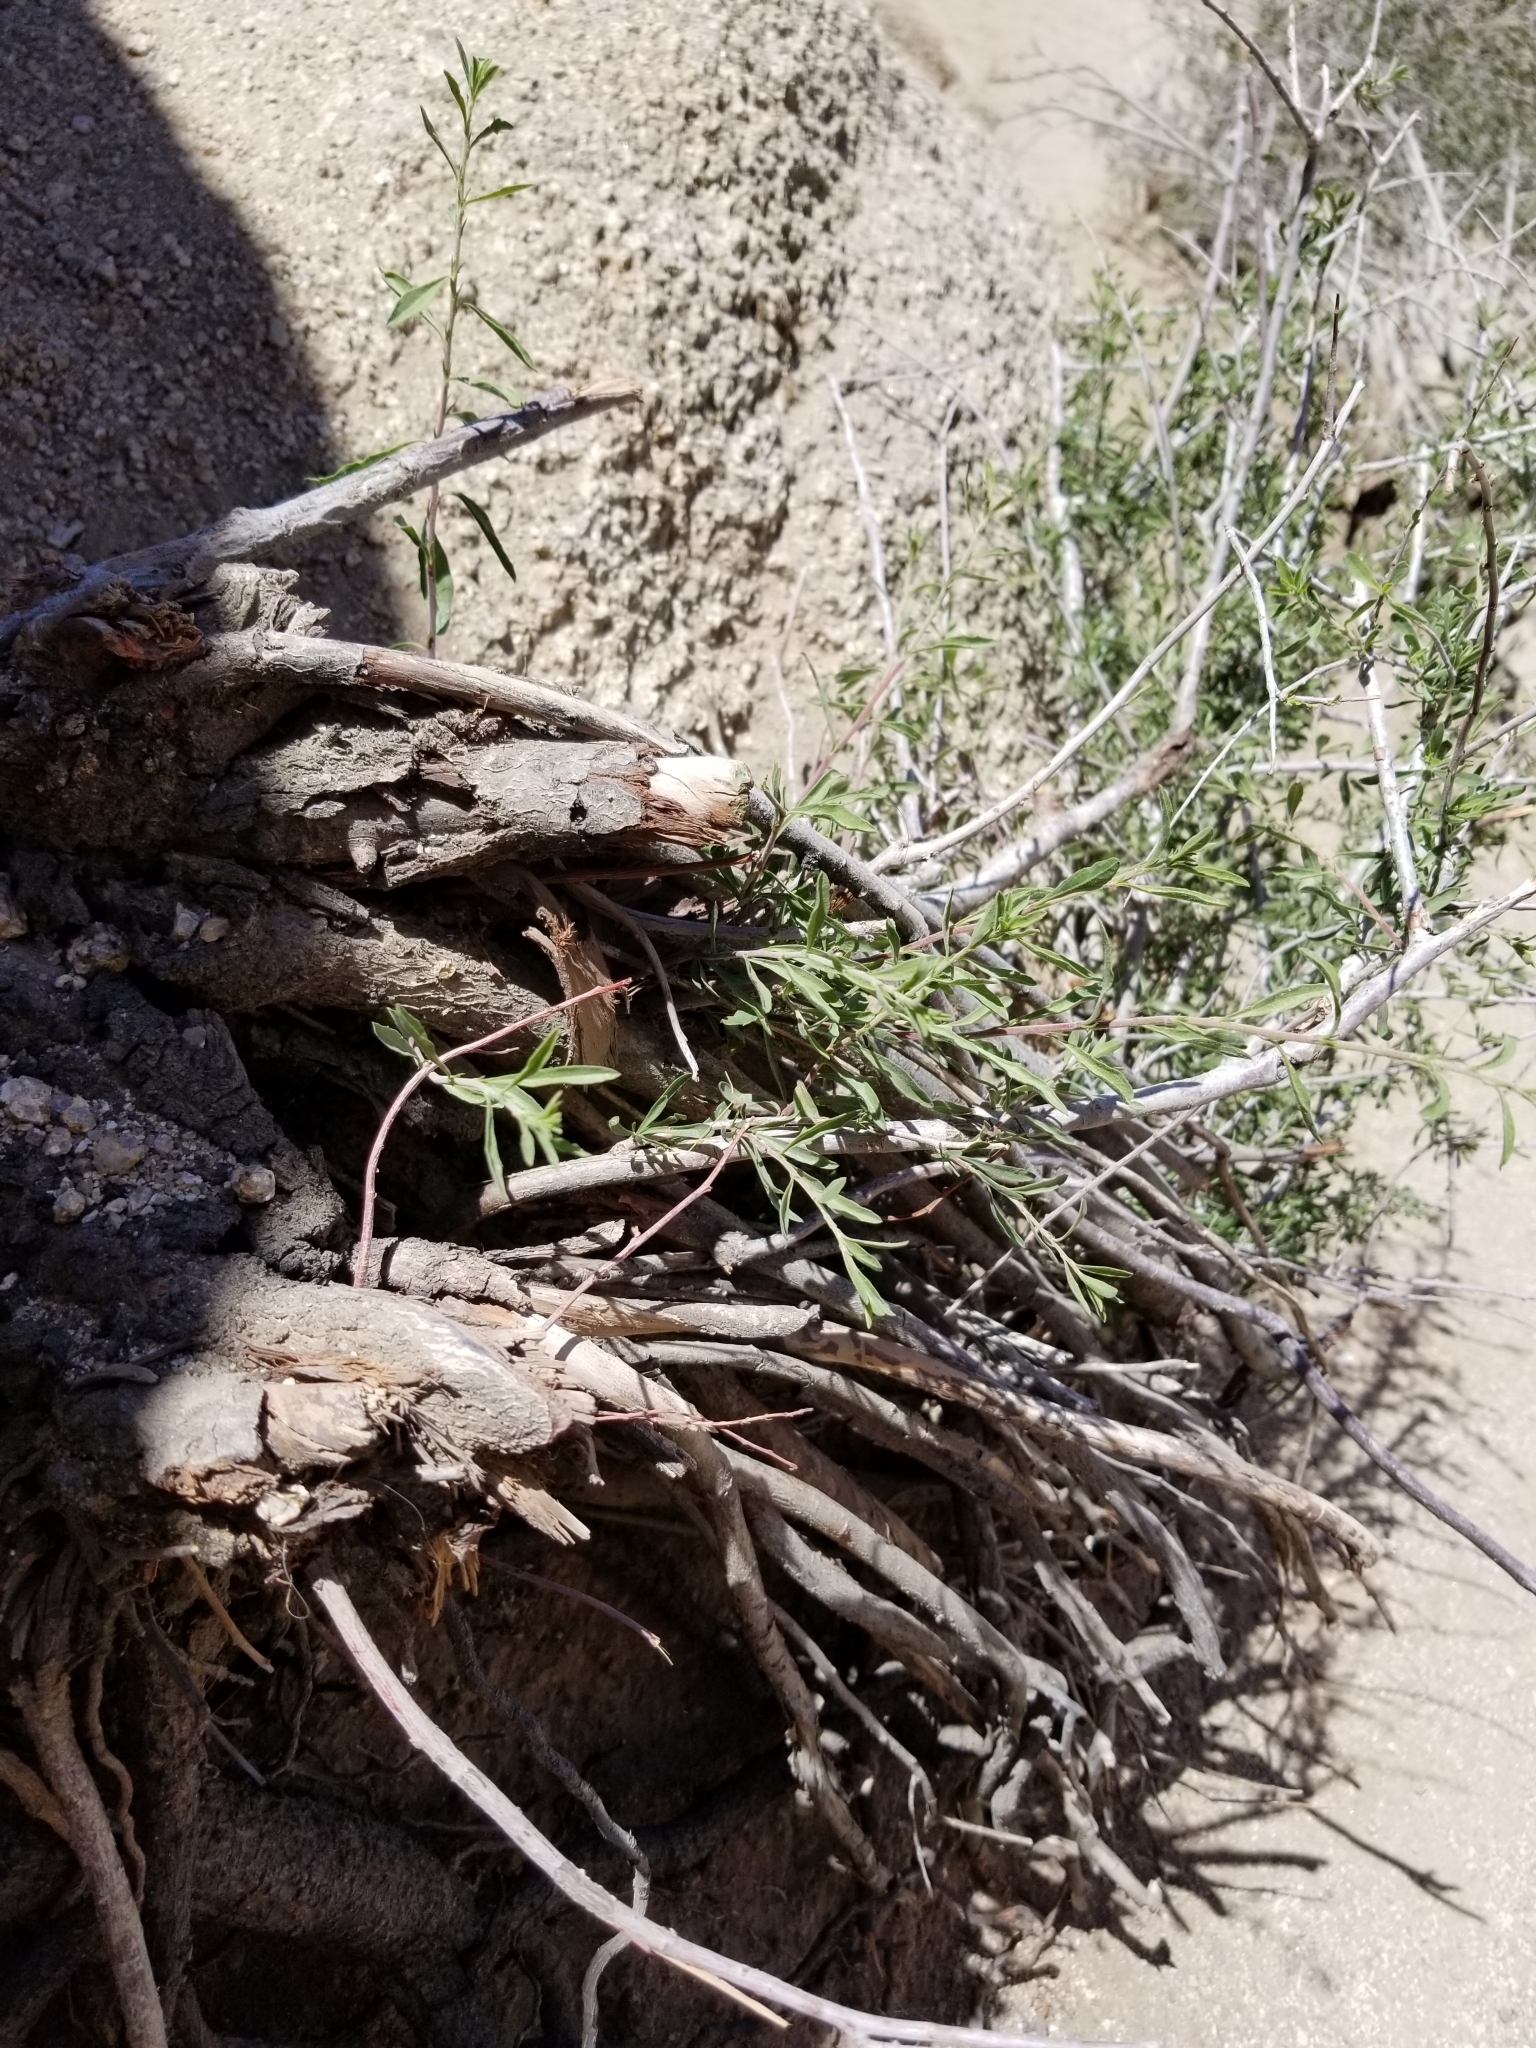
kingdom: Plantae
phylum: Tracheophyta
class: Magnoliopsida
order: Rosales
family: Rosaceae
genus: Prunus
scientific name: Prunus fasciculata
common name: Desert almond
